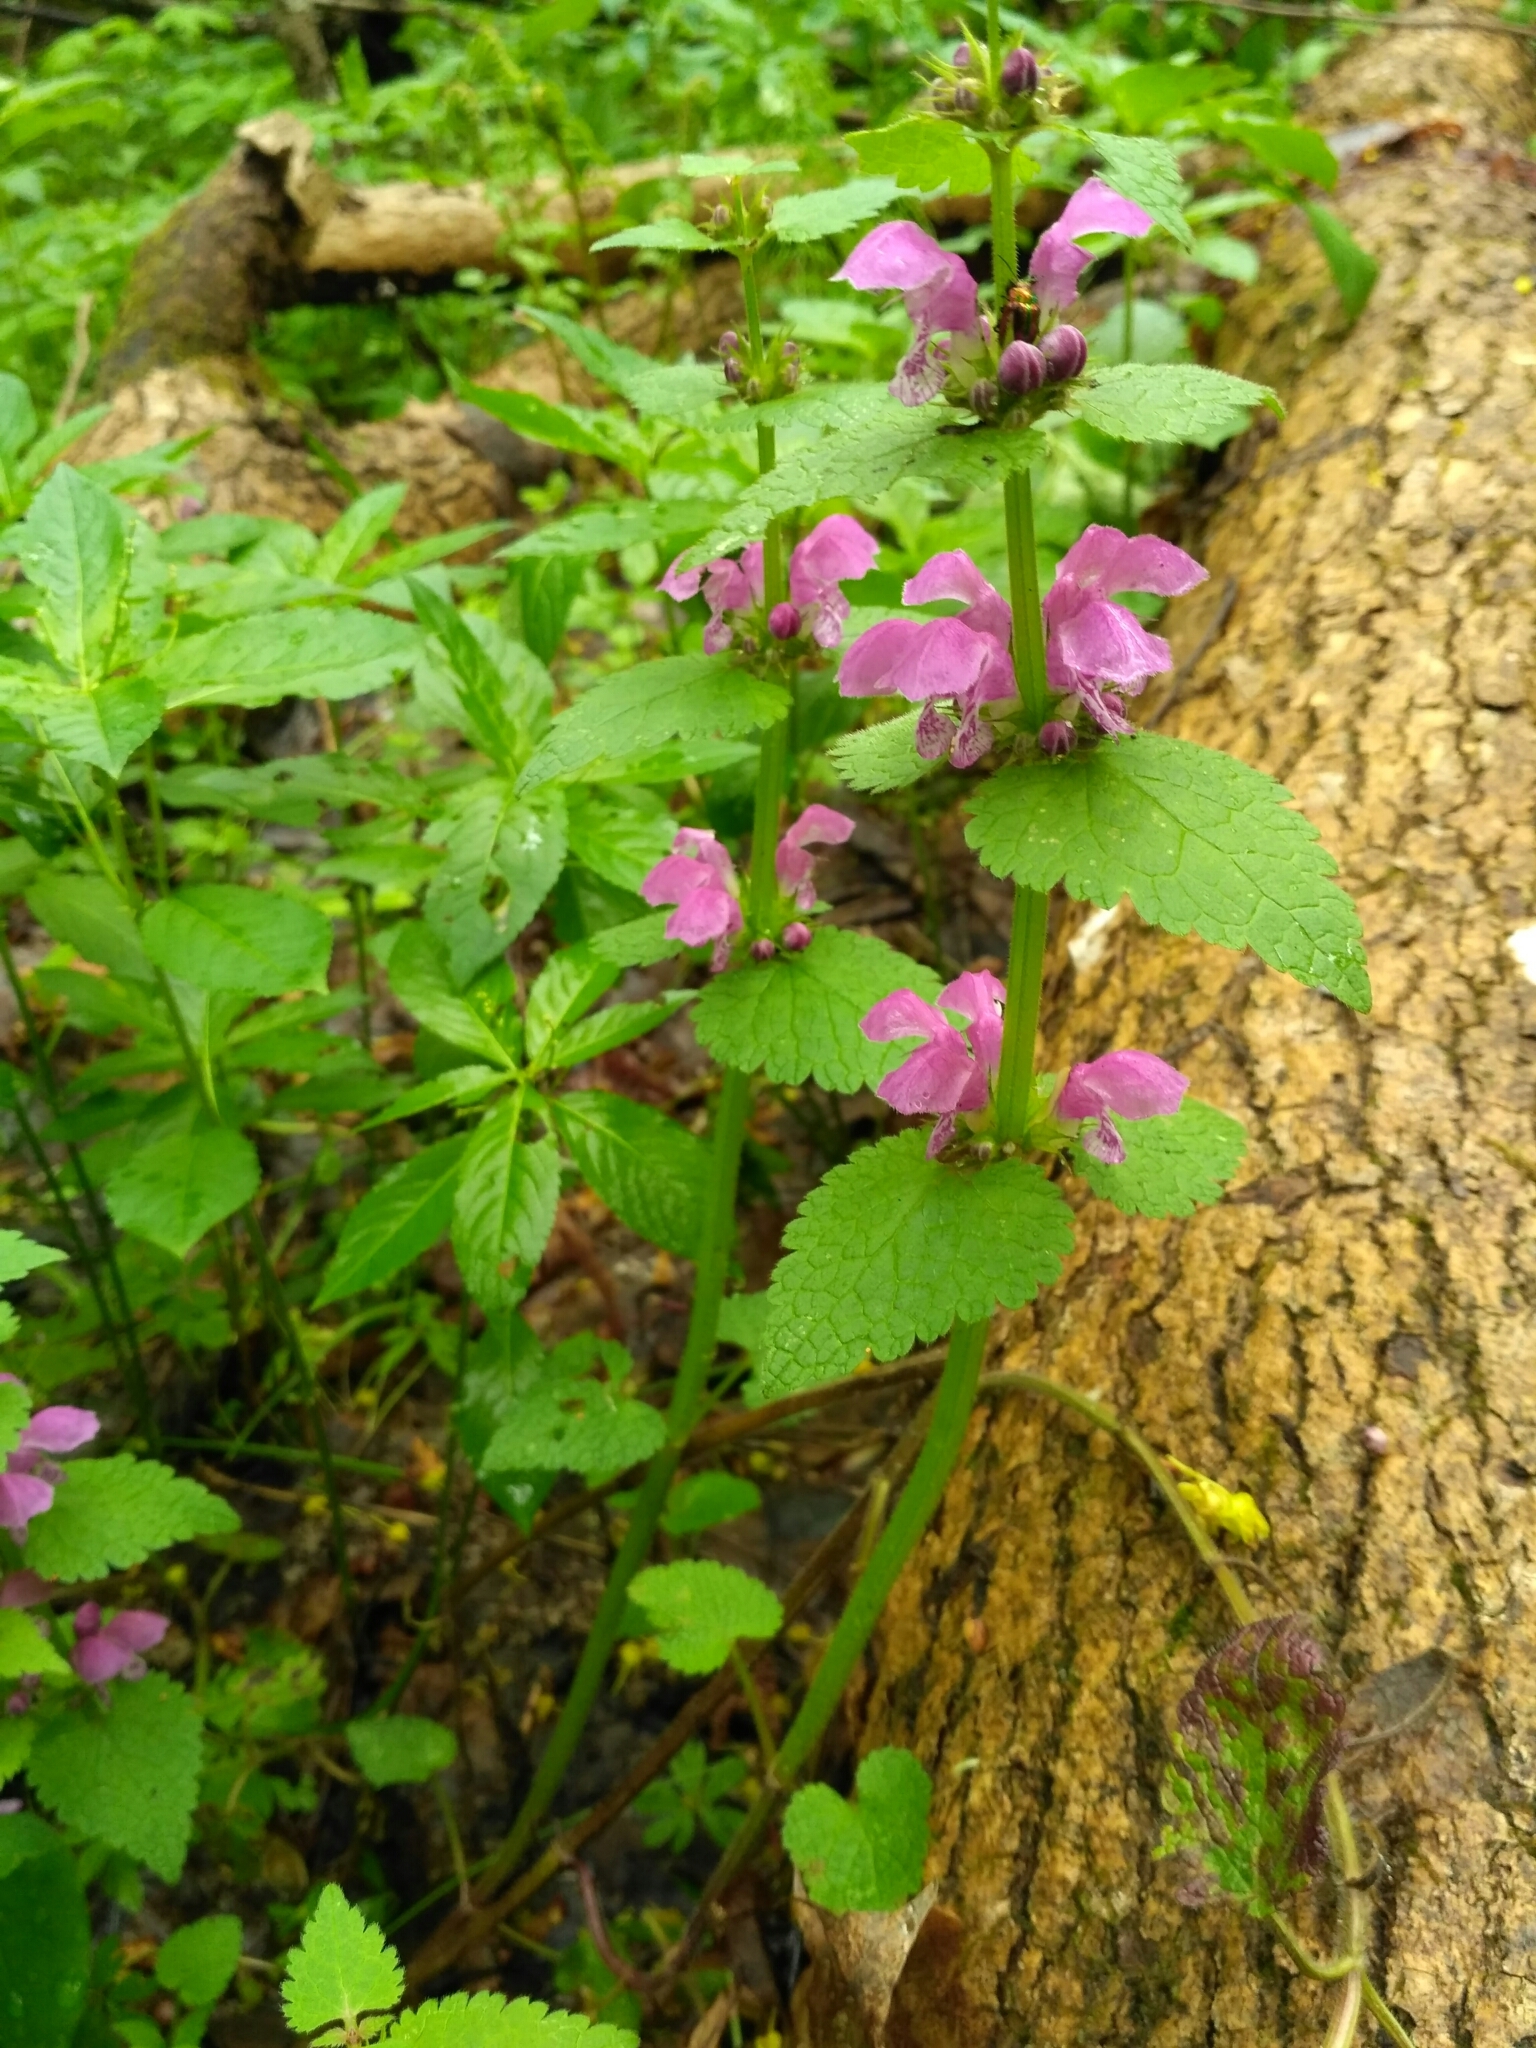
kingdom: Plantae
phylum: Tracheophyta
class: Magnoliopsida
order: Lamiales
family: Lamiaceae
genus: Lamium
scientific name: Lamium maculatum
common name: Spotted dead-nettle
